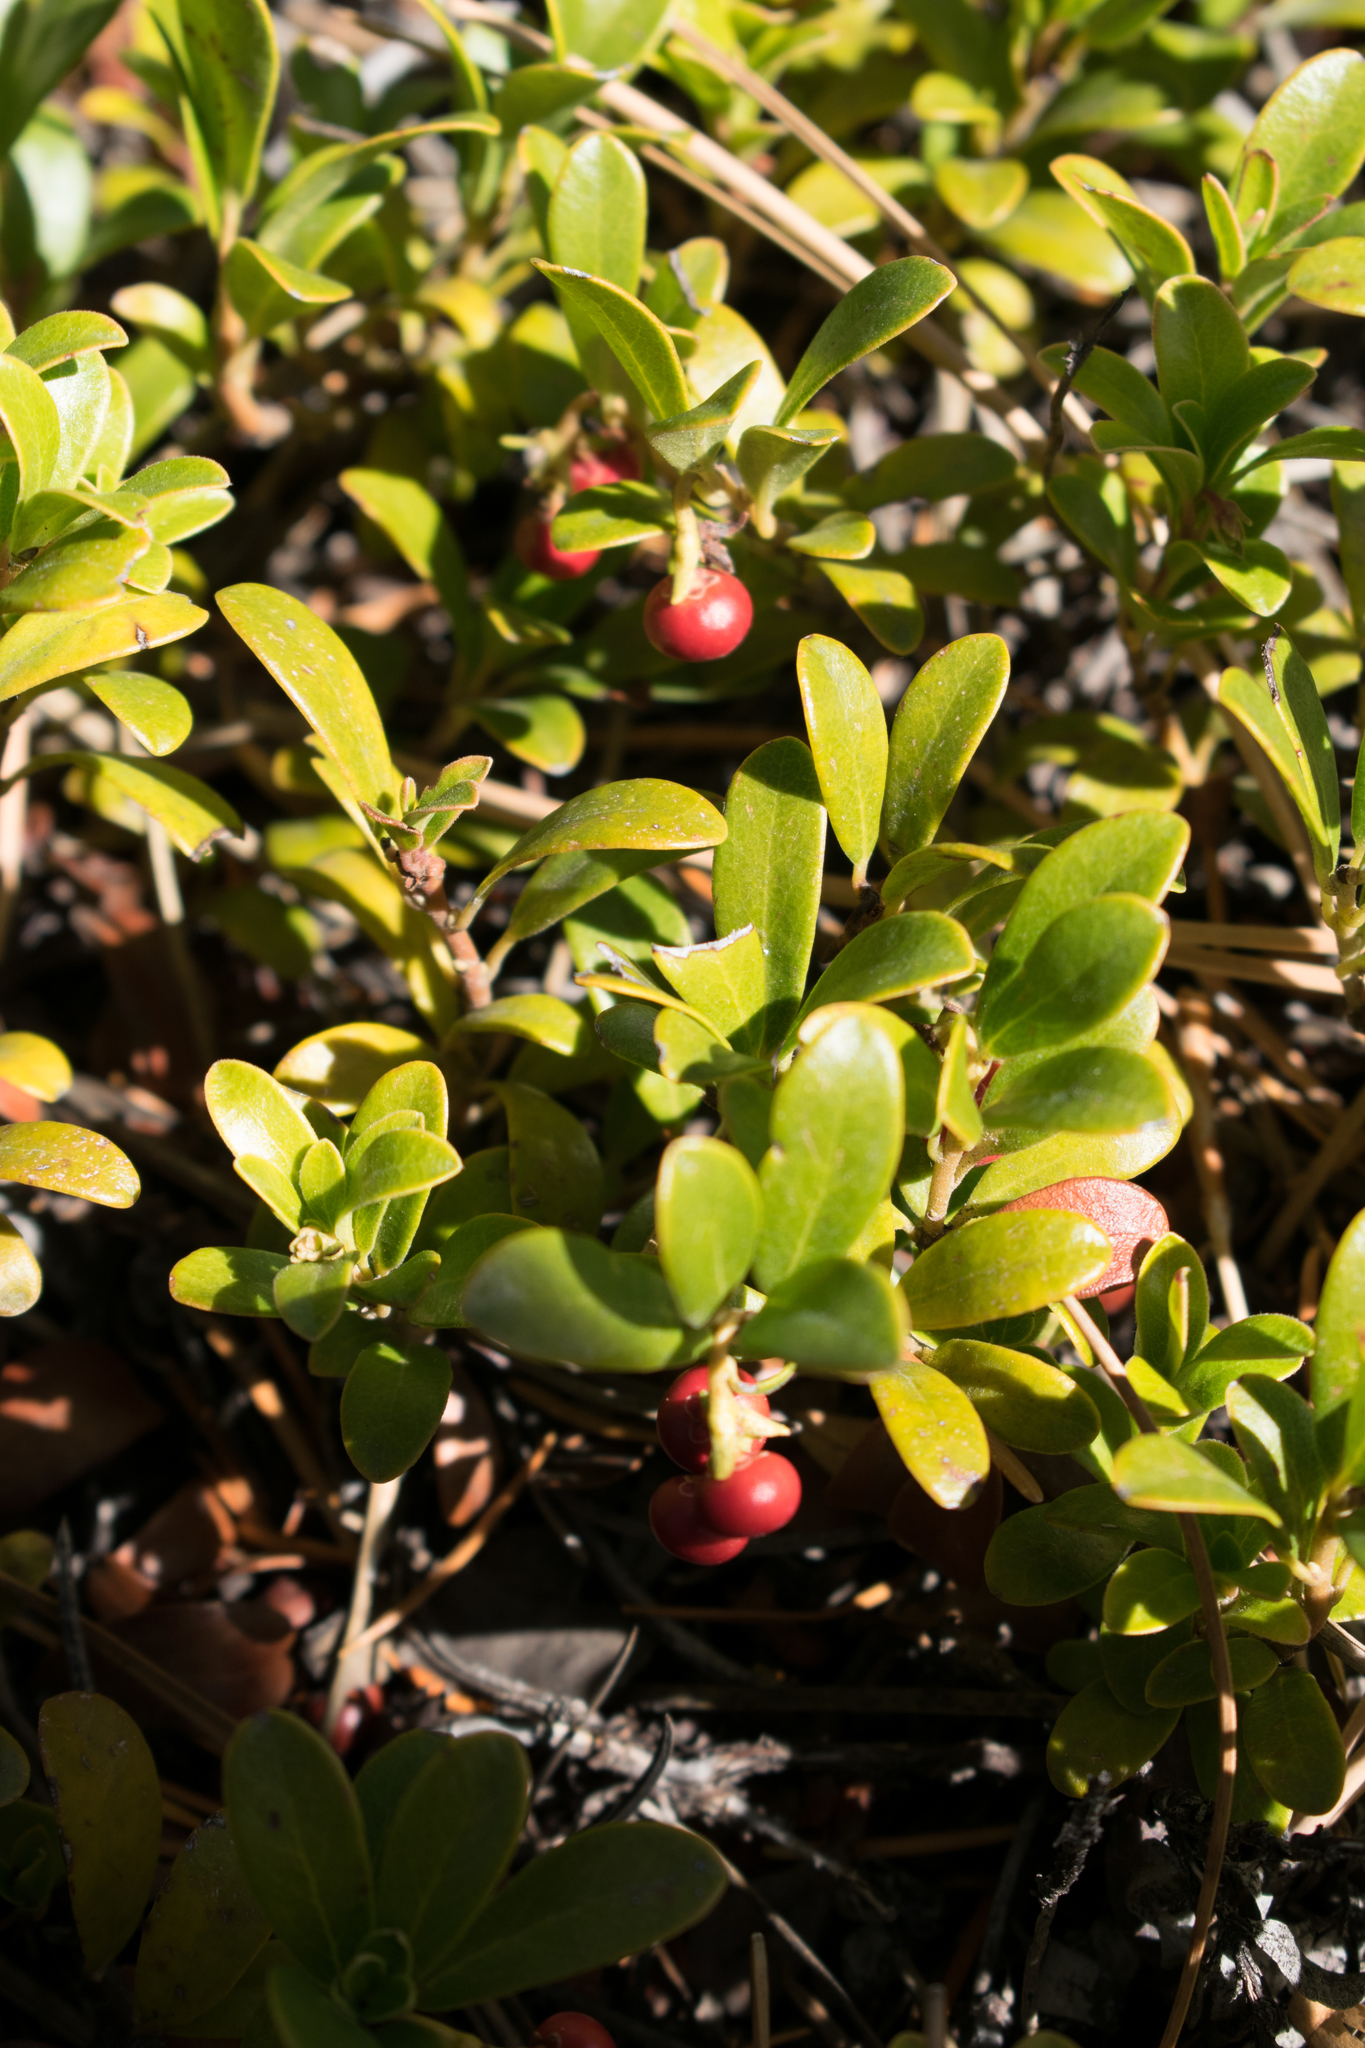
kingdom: Plantae
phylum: Tracheophyta
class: Magnoliopsida
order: Ericales
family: Ericaceae
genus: Arctostaphylos
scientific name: Arctostaphylos uva-ursi
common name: Bearberry
